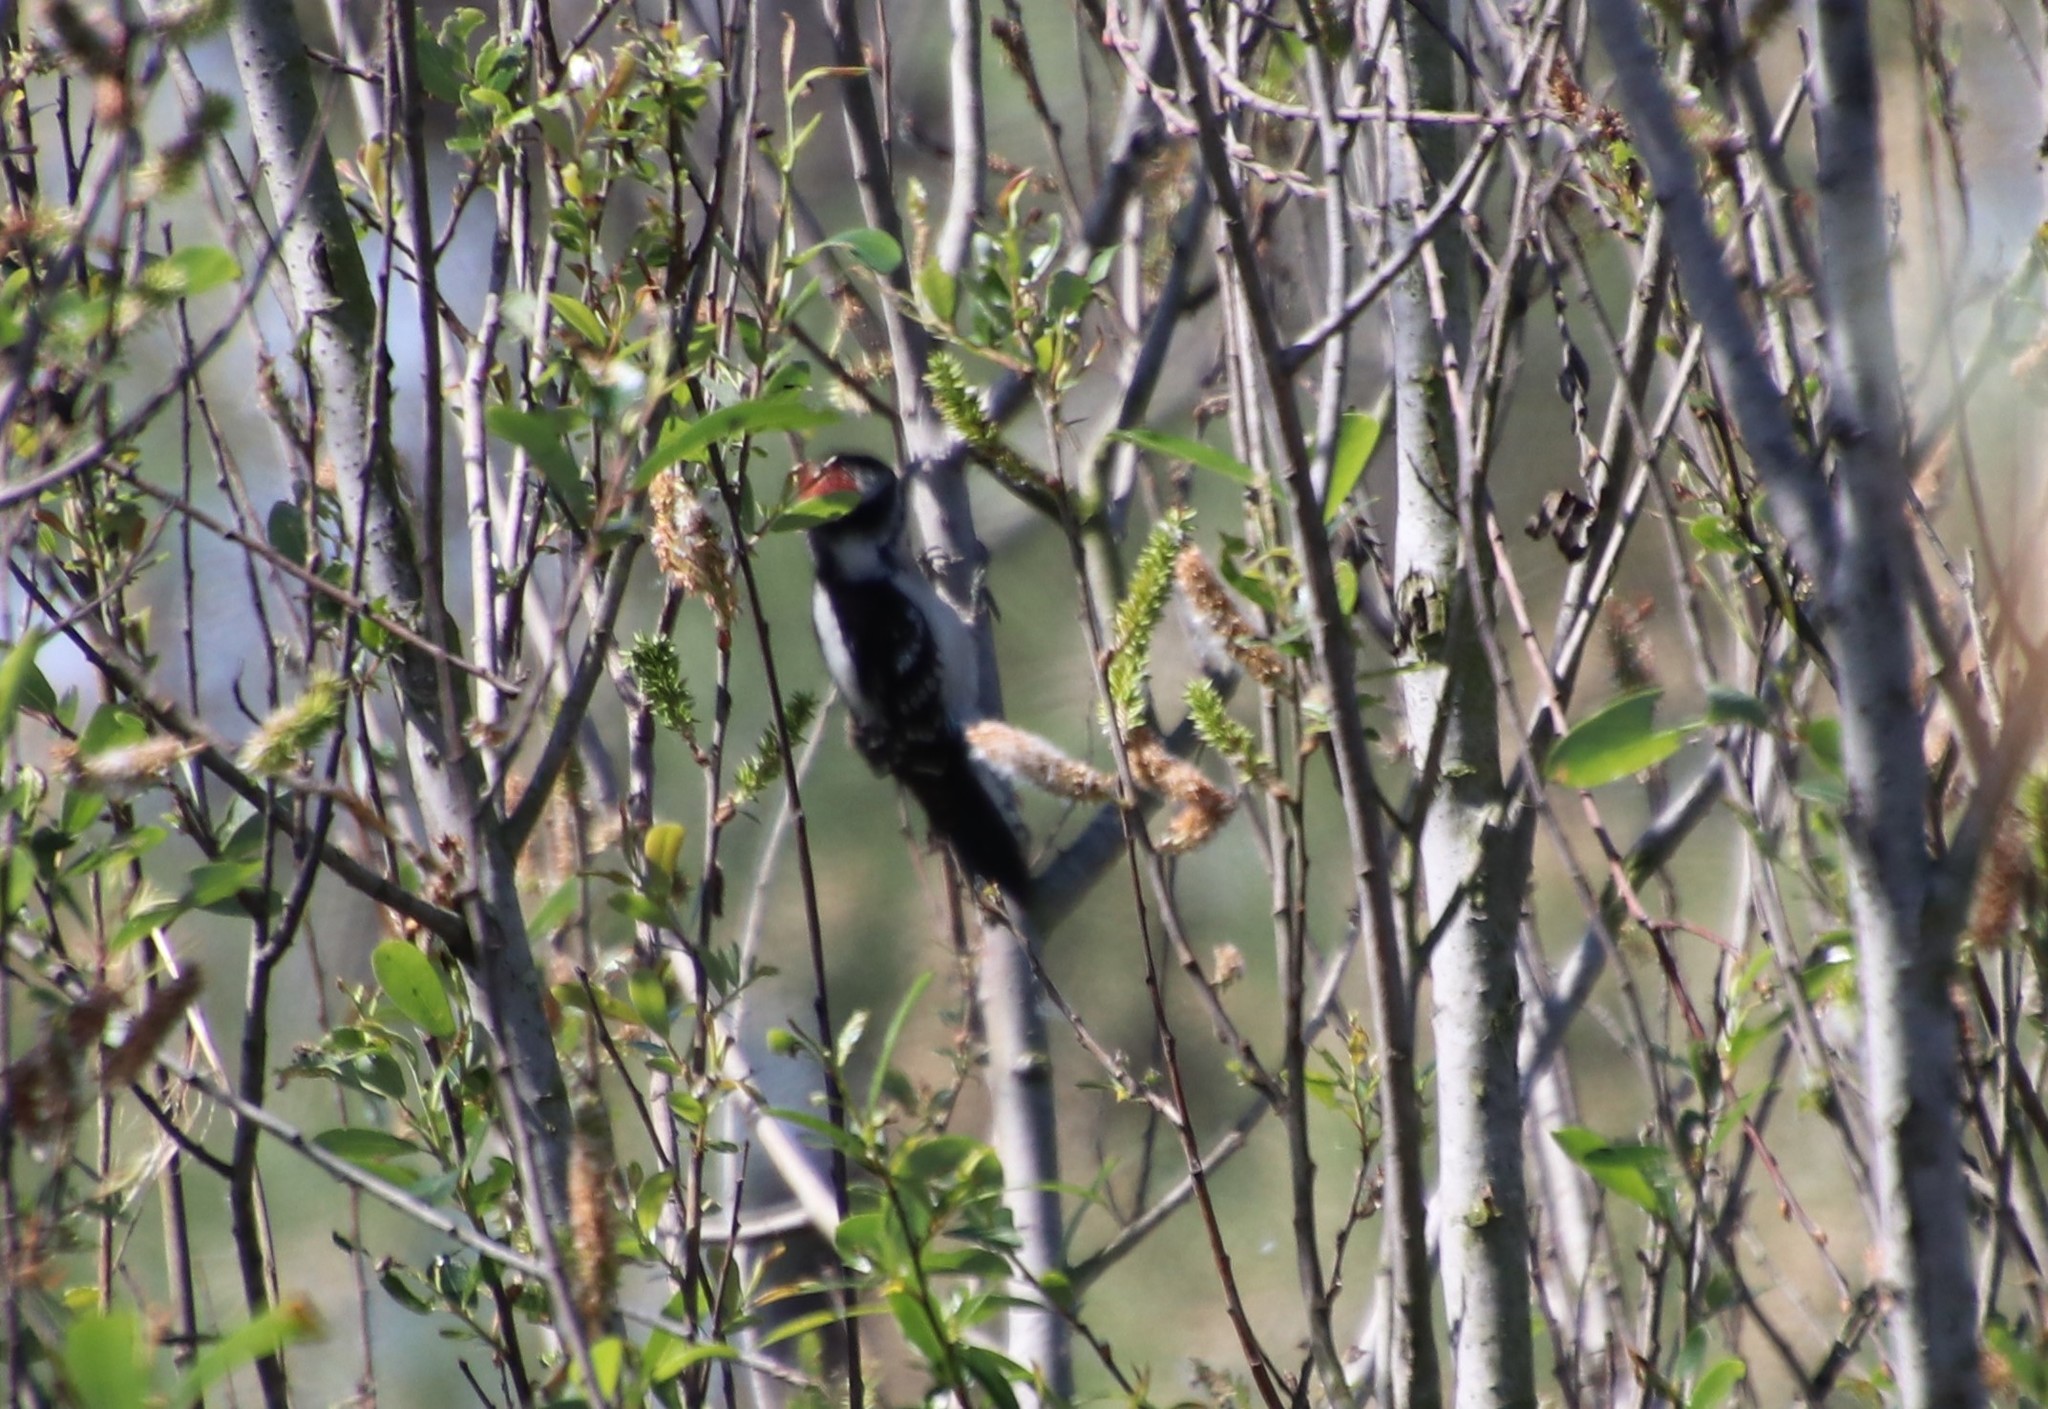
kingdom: Animalia
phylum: Chordata
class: Aves
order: Piciformes
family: Picidae
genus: Dryobates
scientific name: Dryobates pubescens
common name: Downy woodpecker
